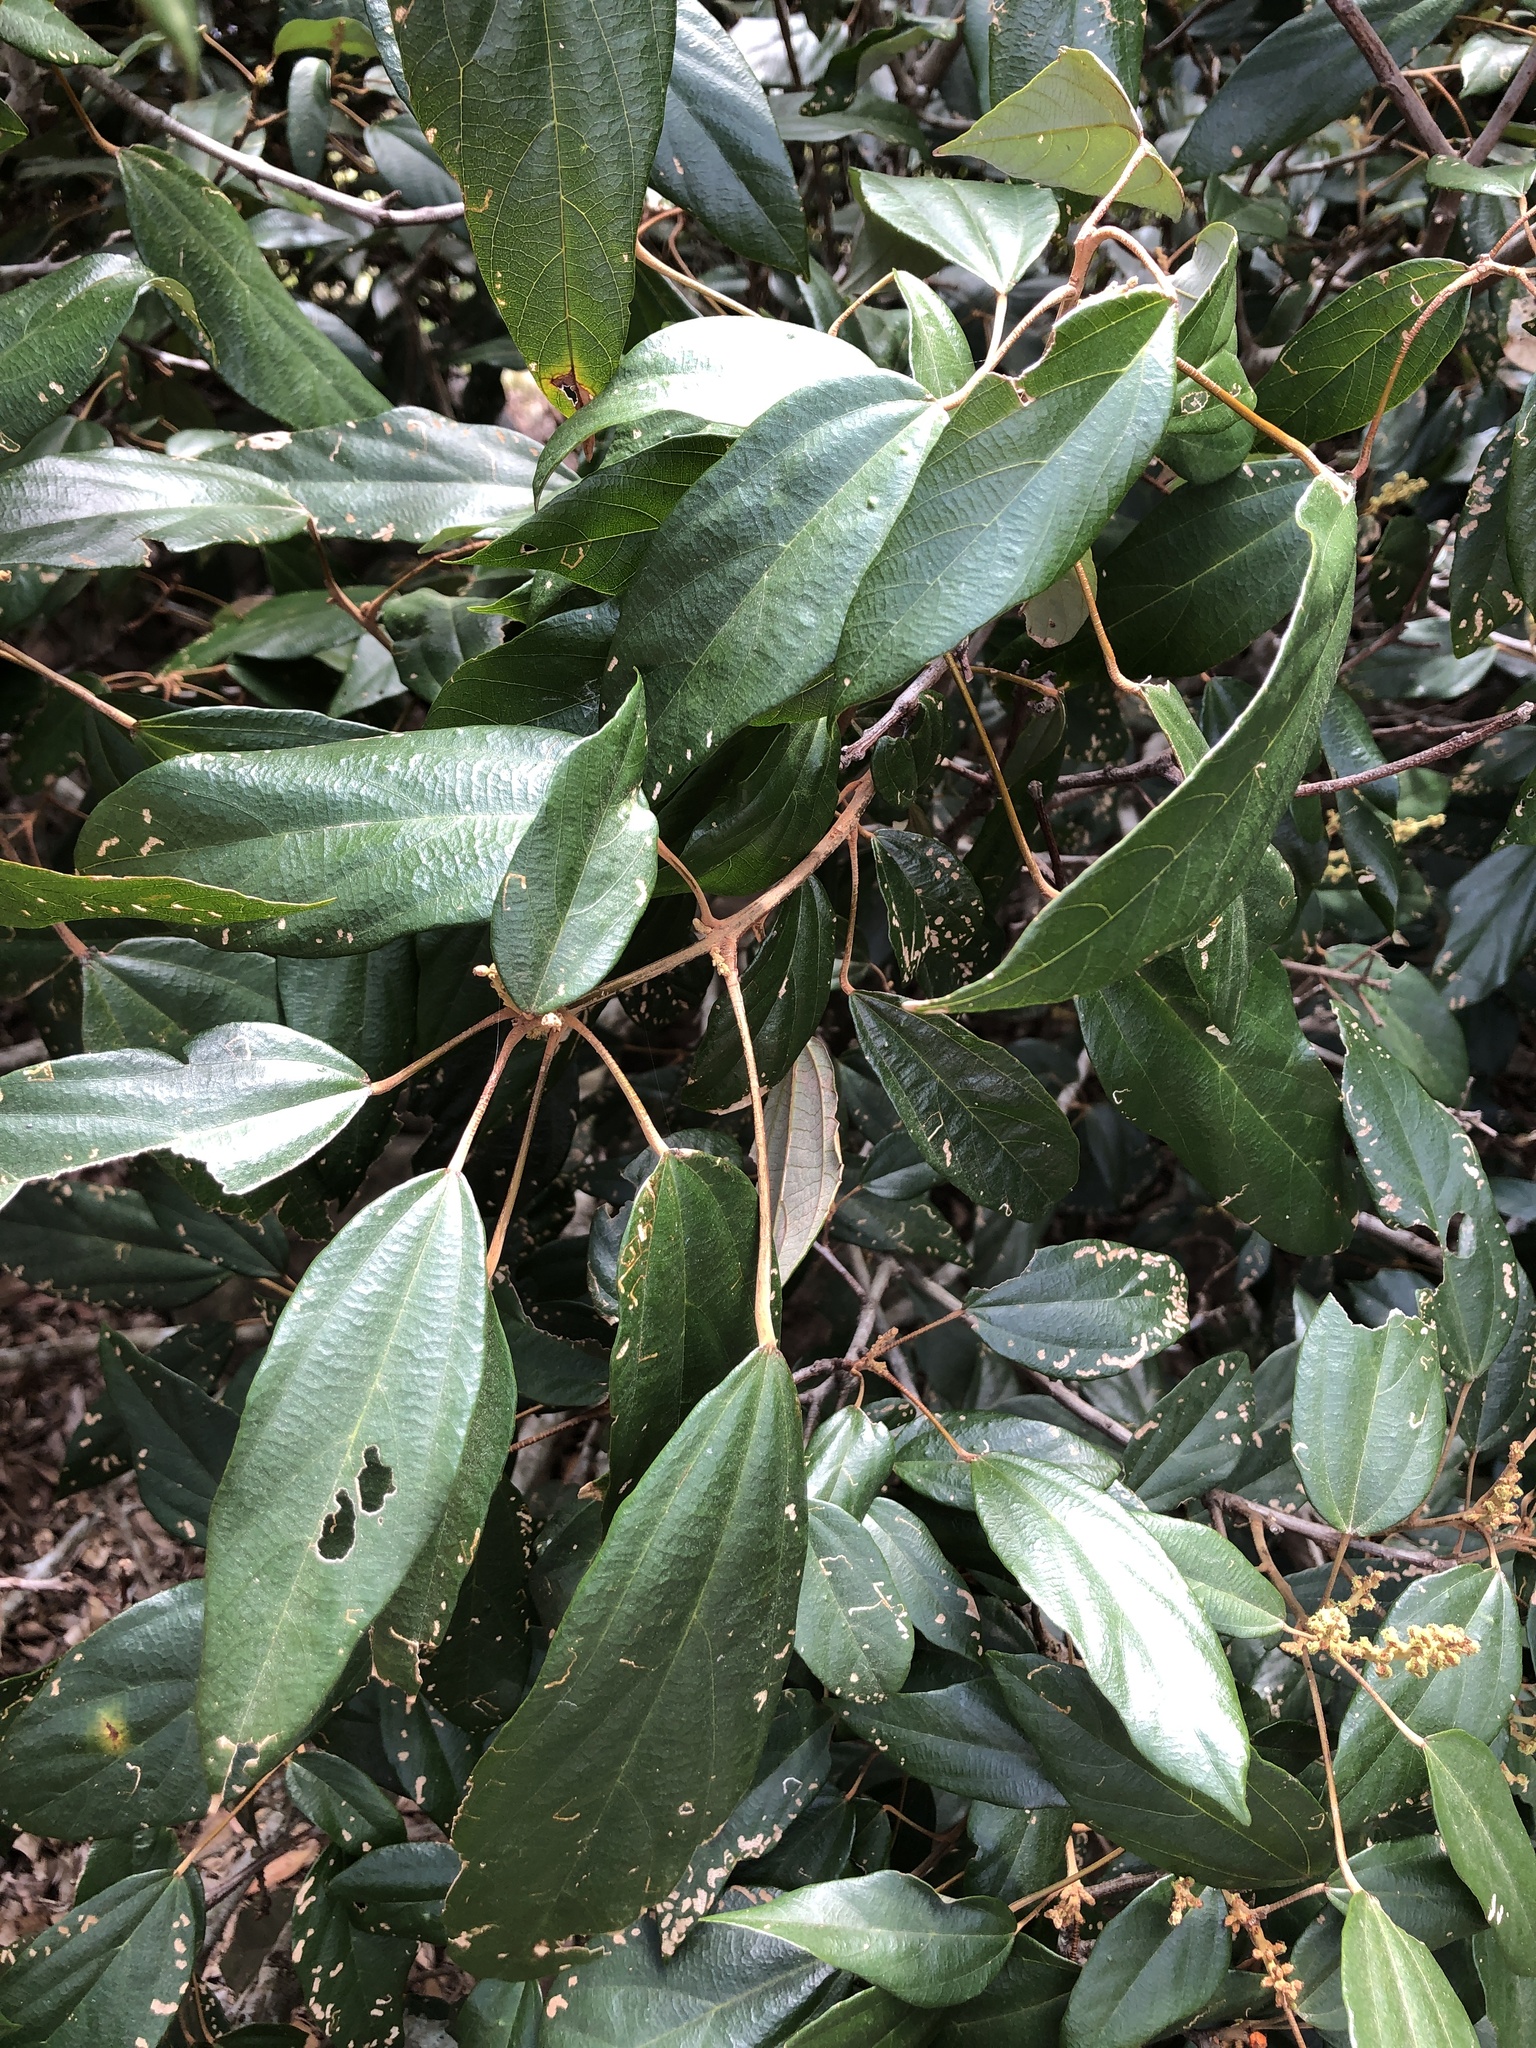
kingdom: Plantae
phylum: Tracheophyta
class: Magnoliopsida
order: Malpighiales
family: Euphorbiaceae
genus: Mallotus
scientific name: Mallotus philippensis
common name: Kamala tree
